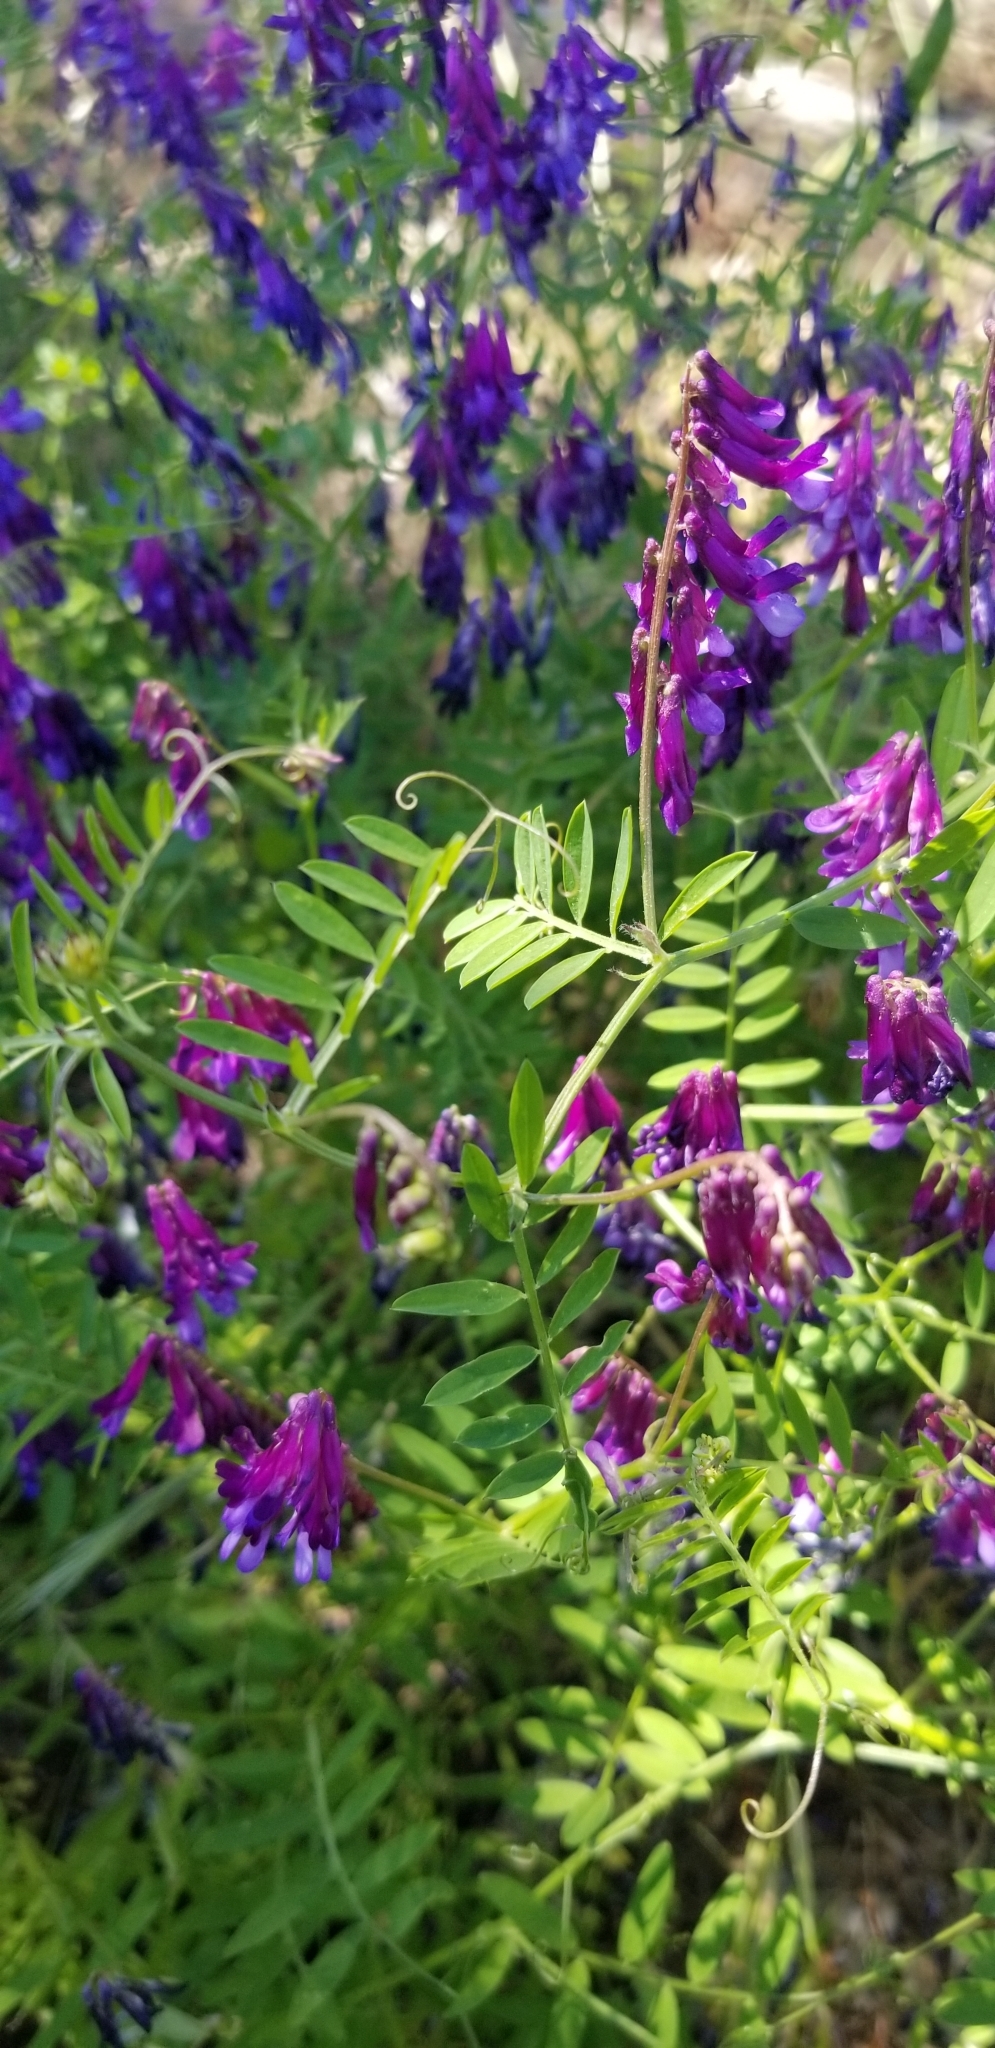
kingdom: Plantae
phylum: Tracheophyta
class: Magnoliopsida
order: Fabales
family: Fabaceae
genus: Vicia
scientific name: Vicia villosa
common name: Fodder vetch
